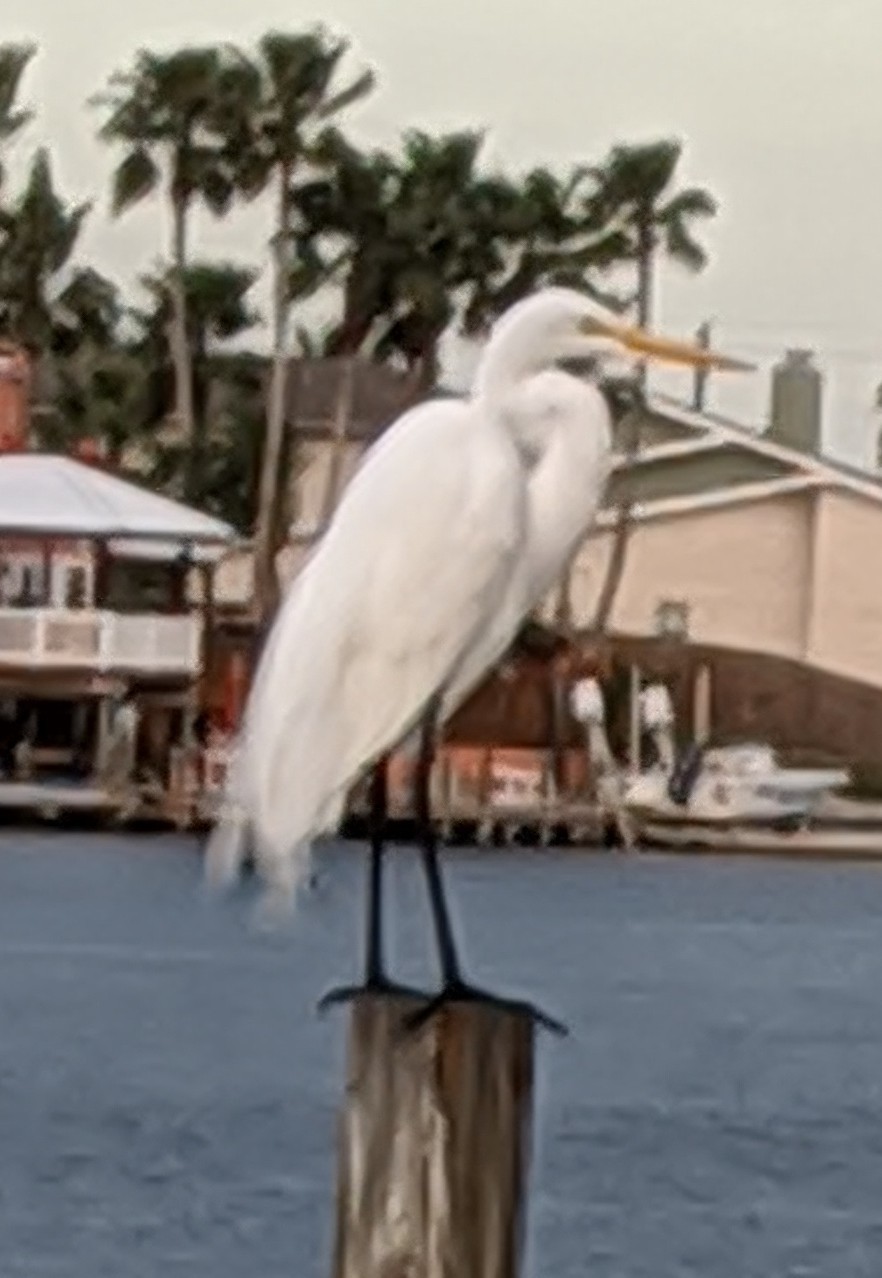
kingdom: Animalia
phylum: Chordata
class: Aves
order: Pelecaniformes
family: Ardeidae
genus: Ardea
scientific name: Ardea alba
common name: Great egret
